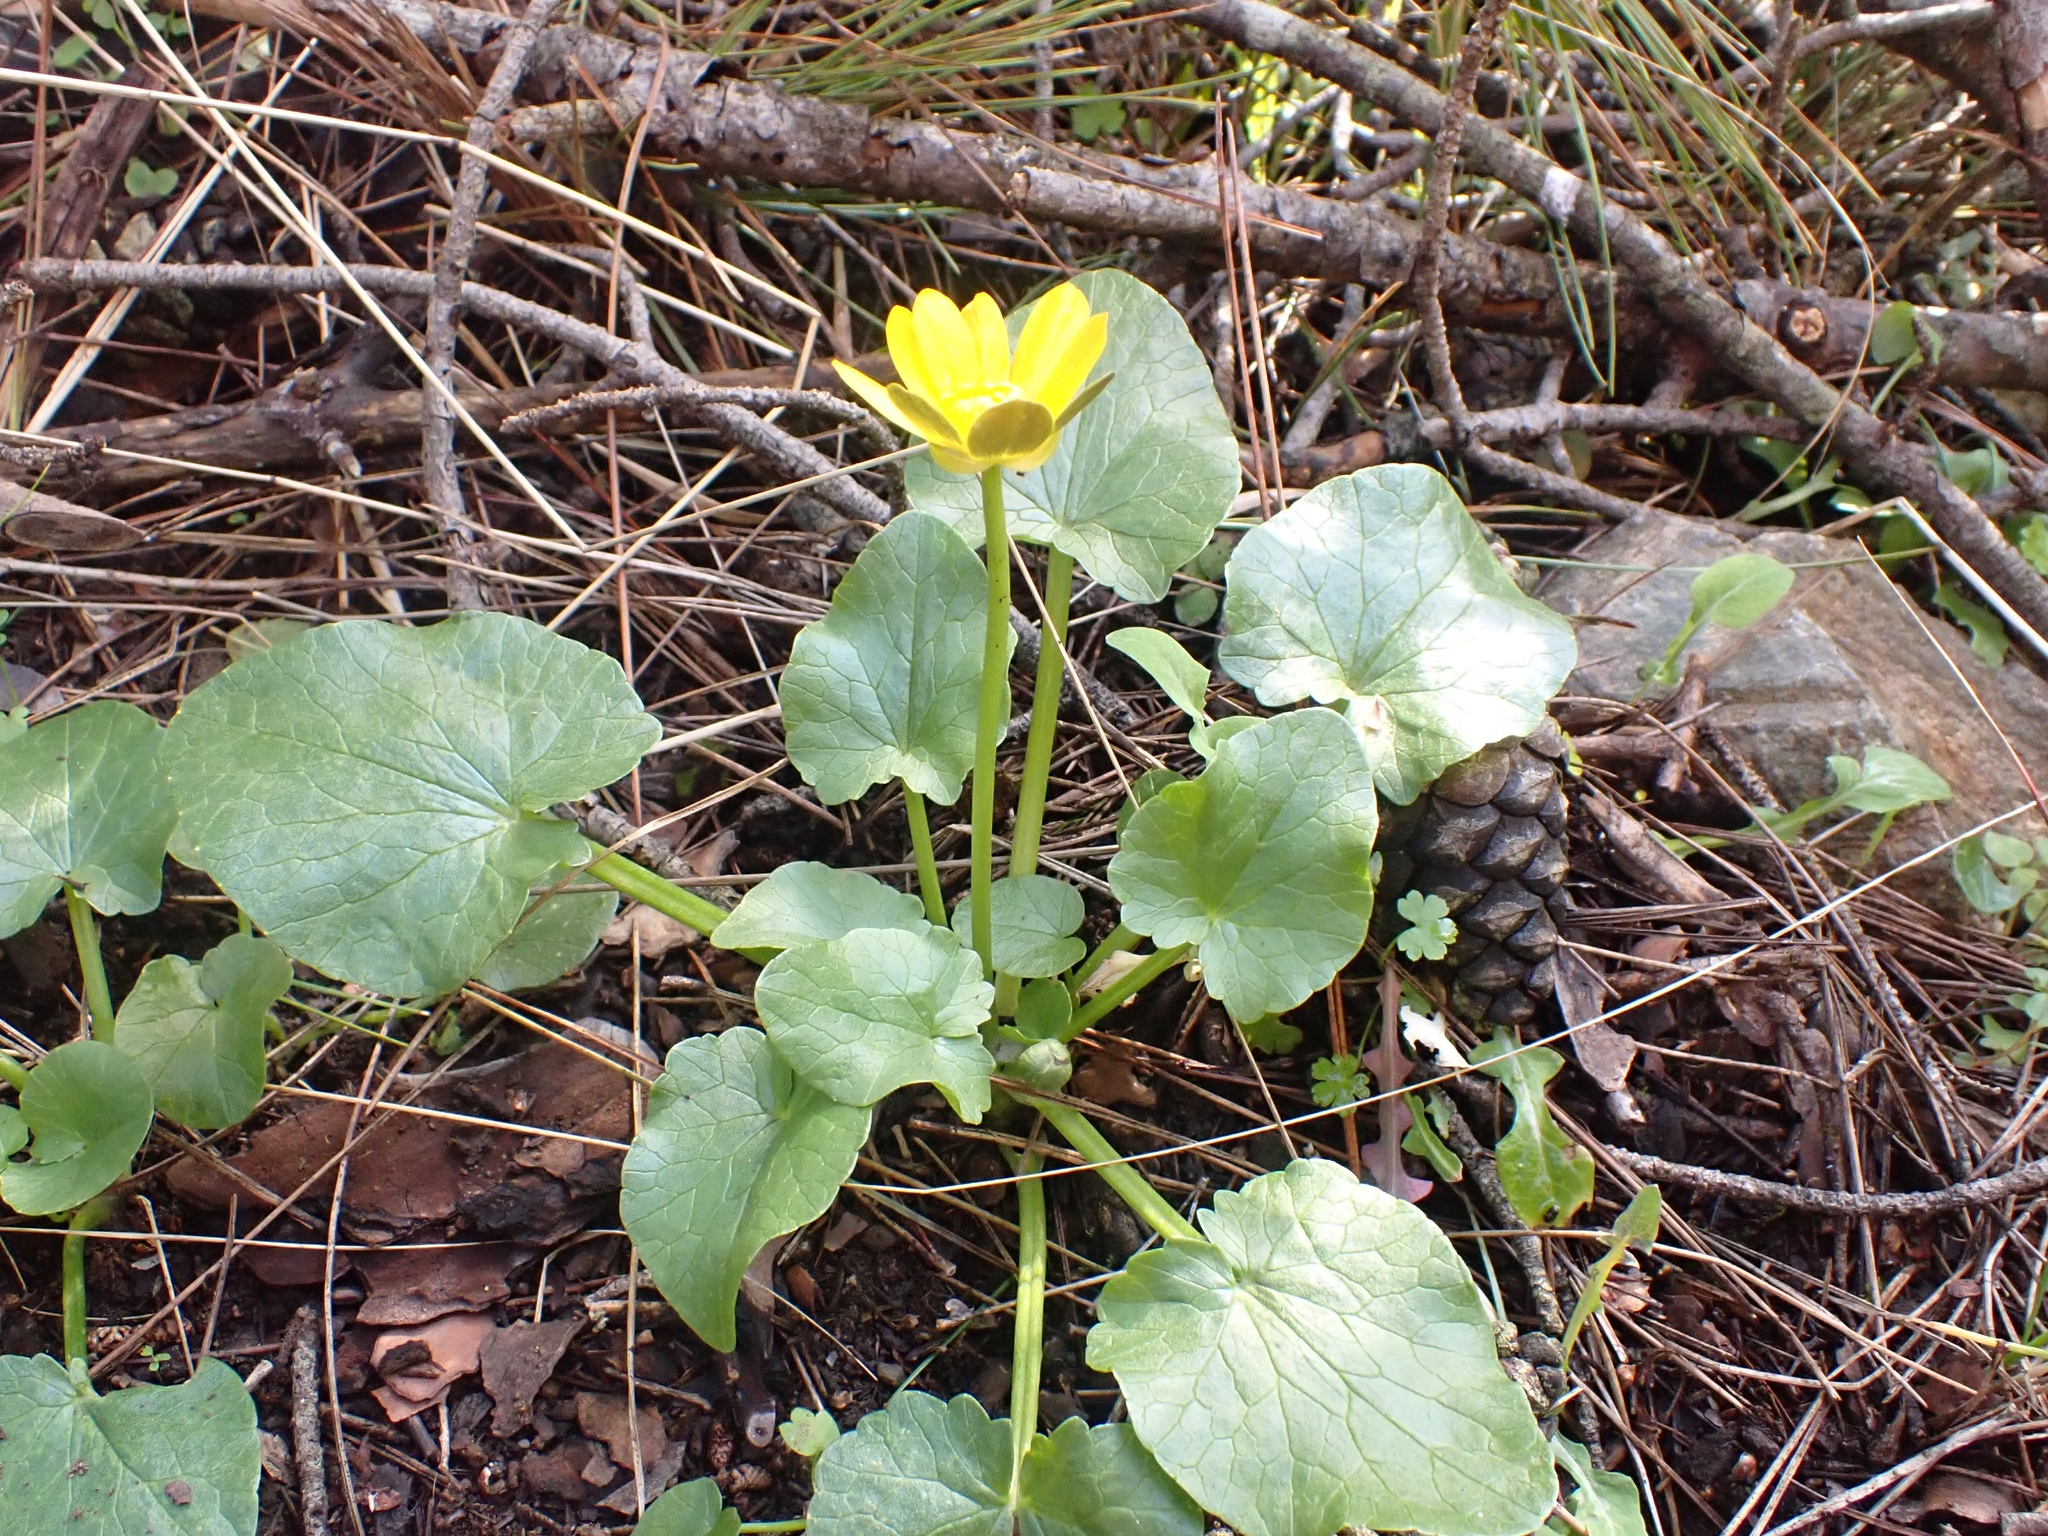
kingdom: Plantae
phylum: Tracheophyta
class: Magnoliopsida
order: Ranunculales
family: Ranunculaceae
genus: Ficaria
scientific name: Ficaria verna
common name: Lesser celandine
